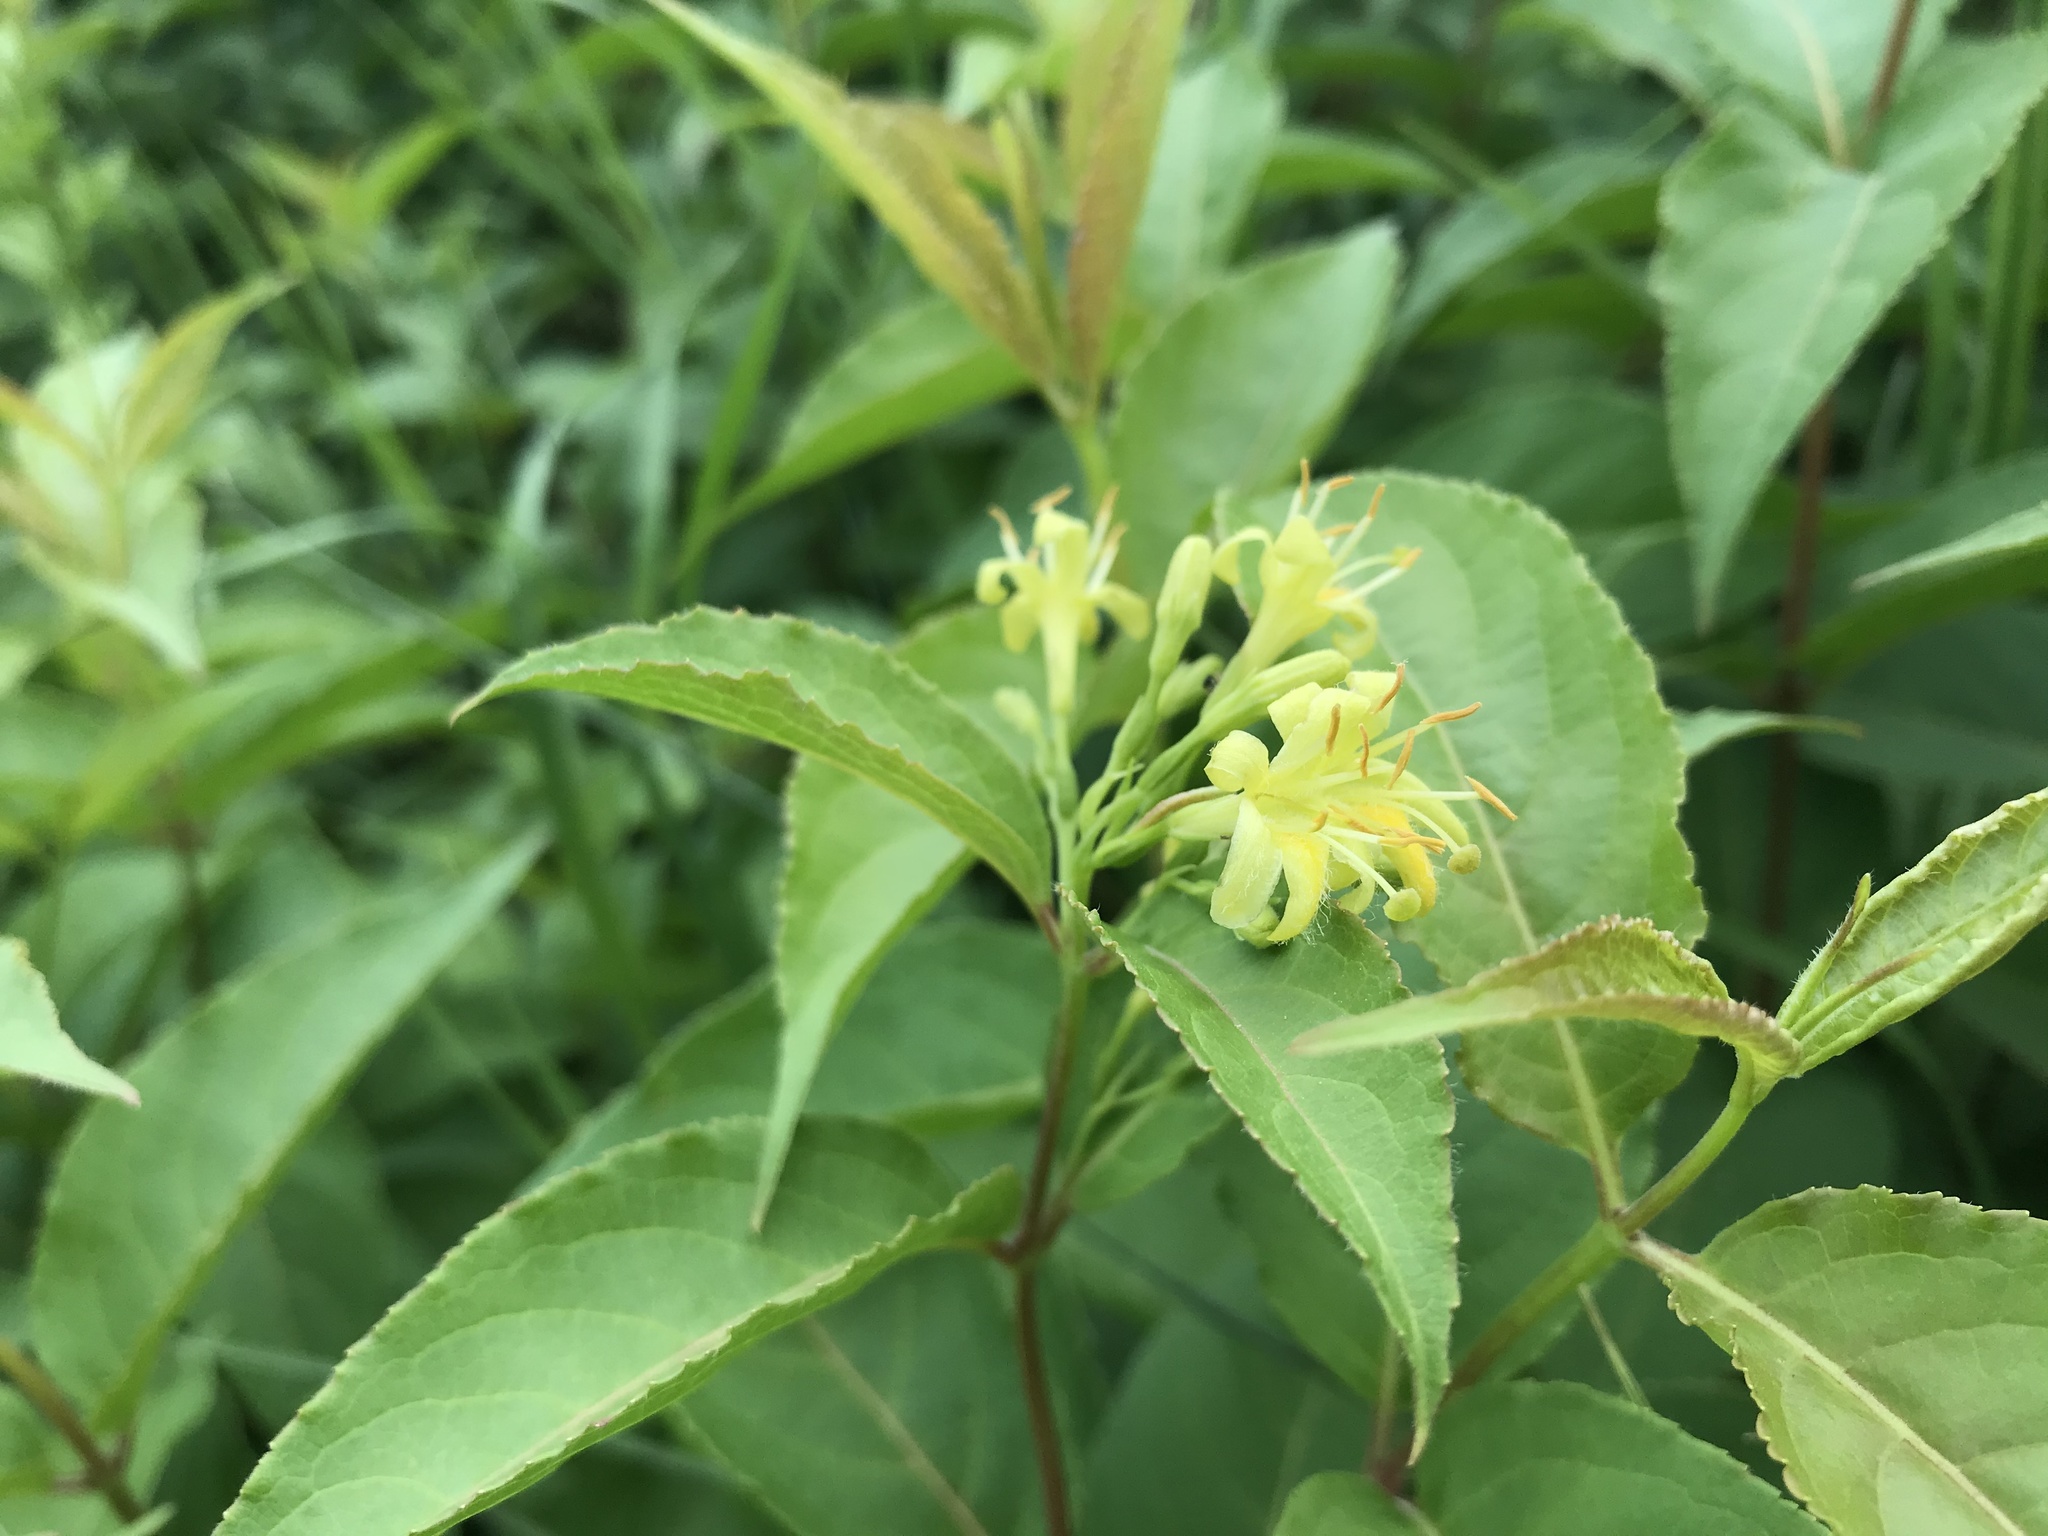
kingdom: Plantae
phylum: Tracheophyta
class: Magnoliopsida
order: Dipsacales
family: Caprifoliaceae
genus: Diervilla
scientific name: Diervilla lonicera
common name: Bush-honeysuckle
